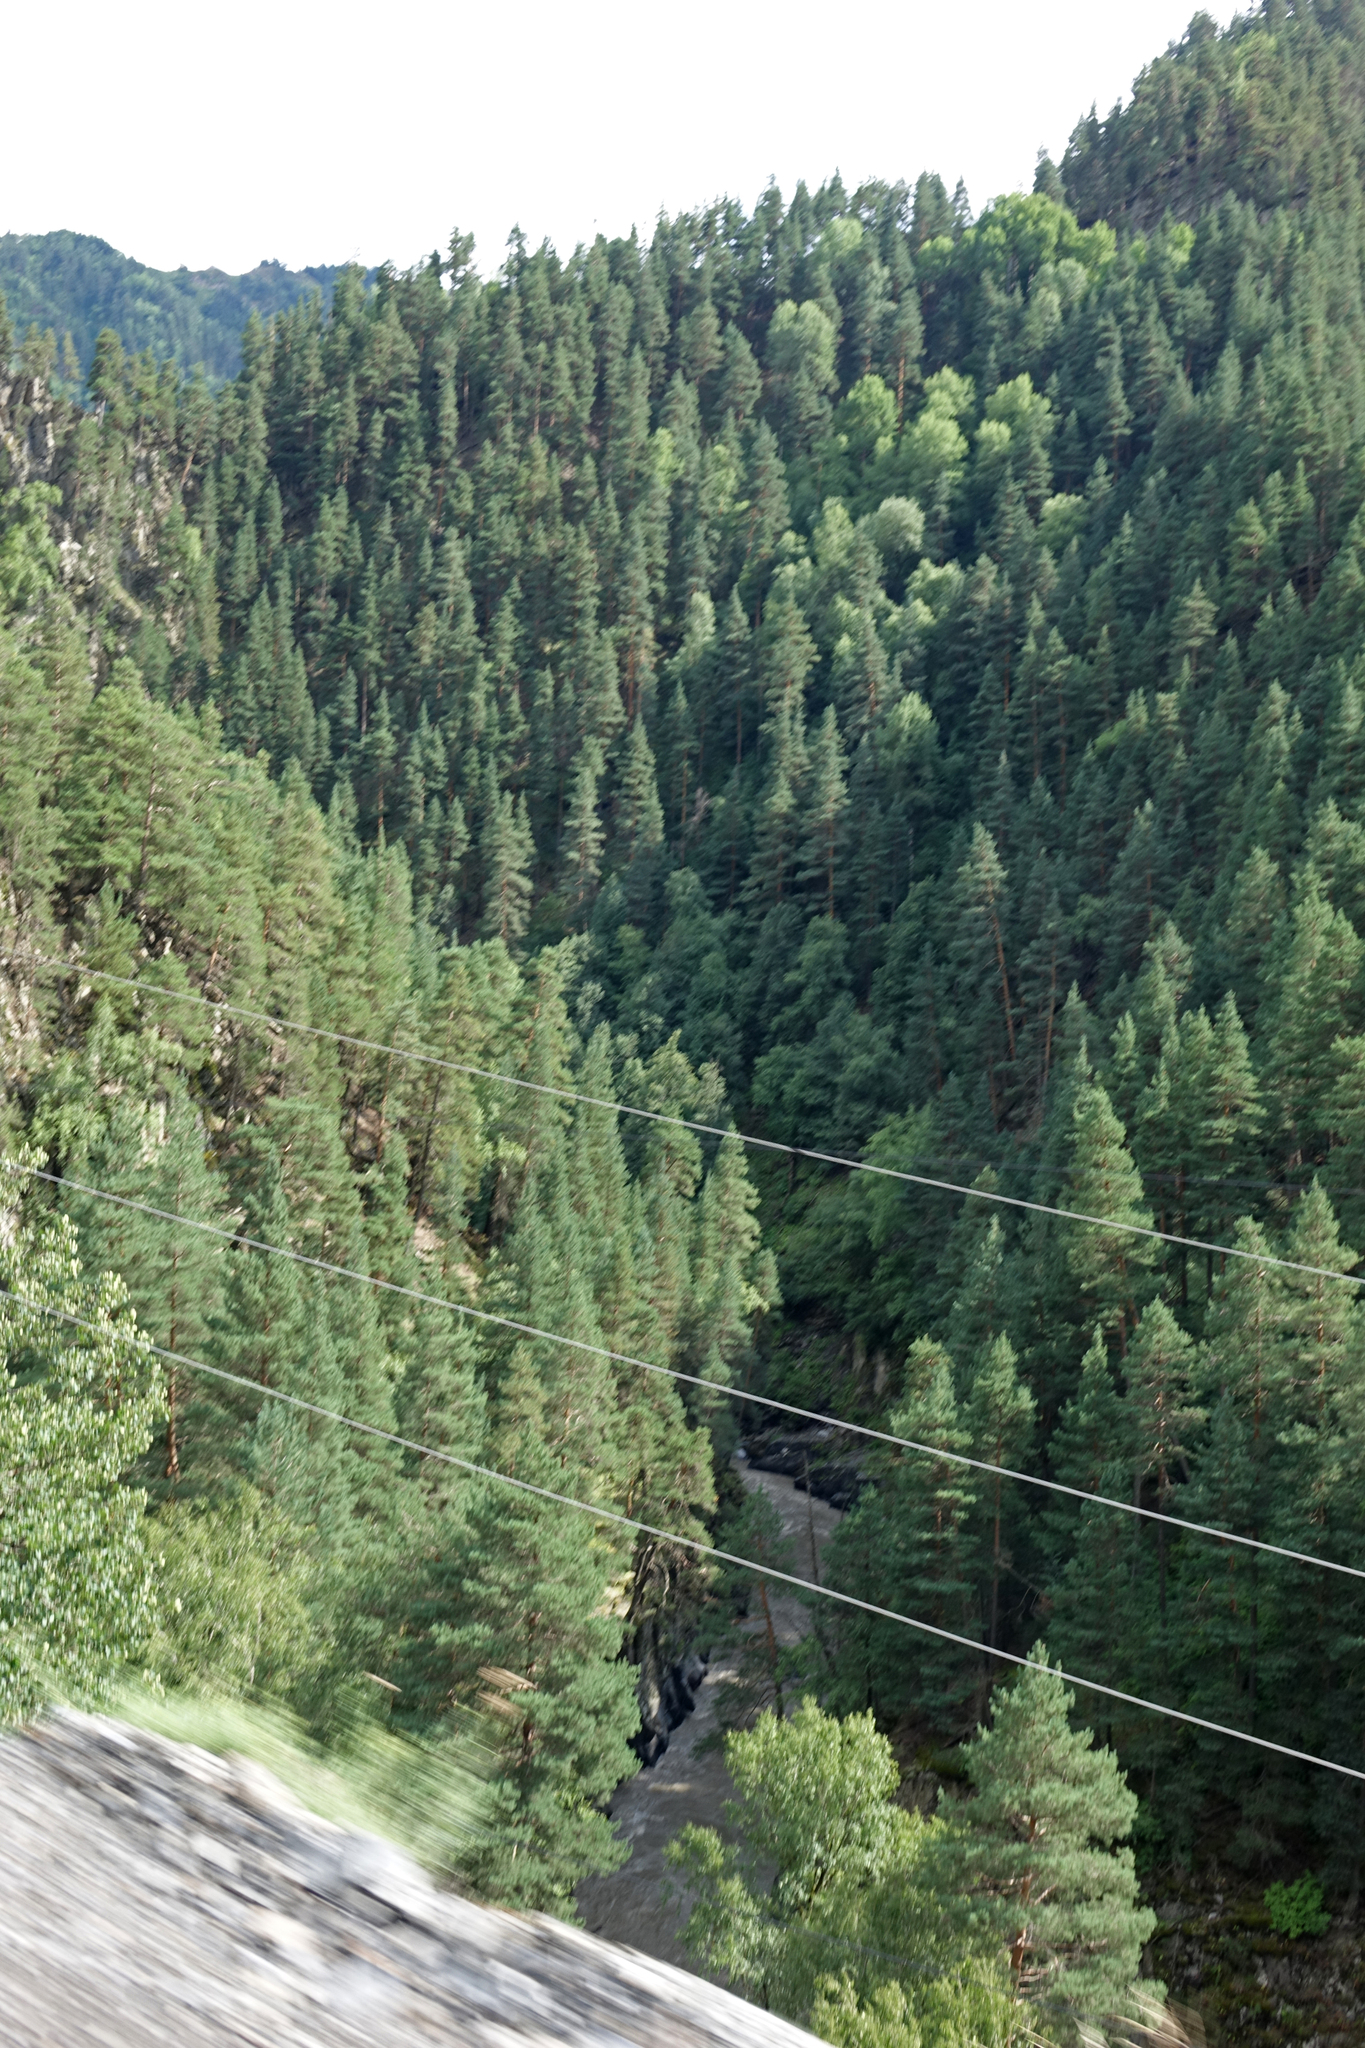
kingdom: Plantae
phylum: Tracheophyta
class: Pinopsida
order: Pinales
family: Pinaceae
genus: Pinus
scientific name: Pinus sylvestris
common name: Scots pine
